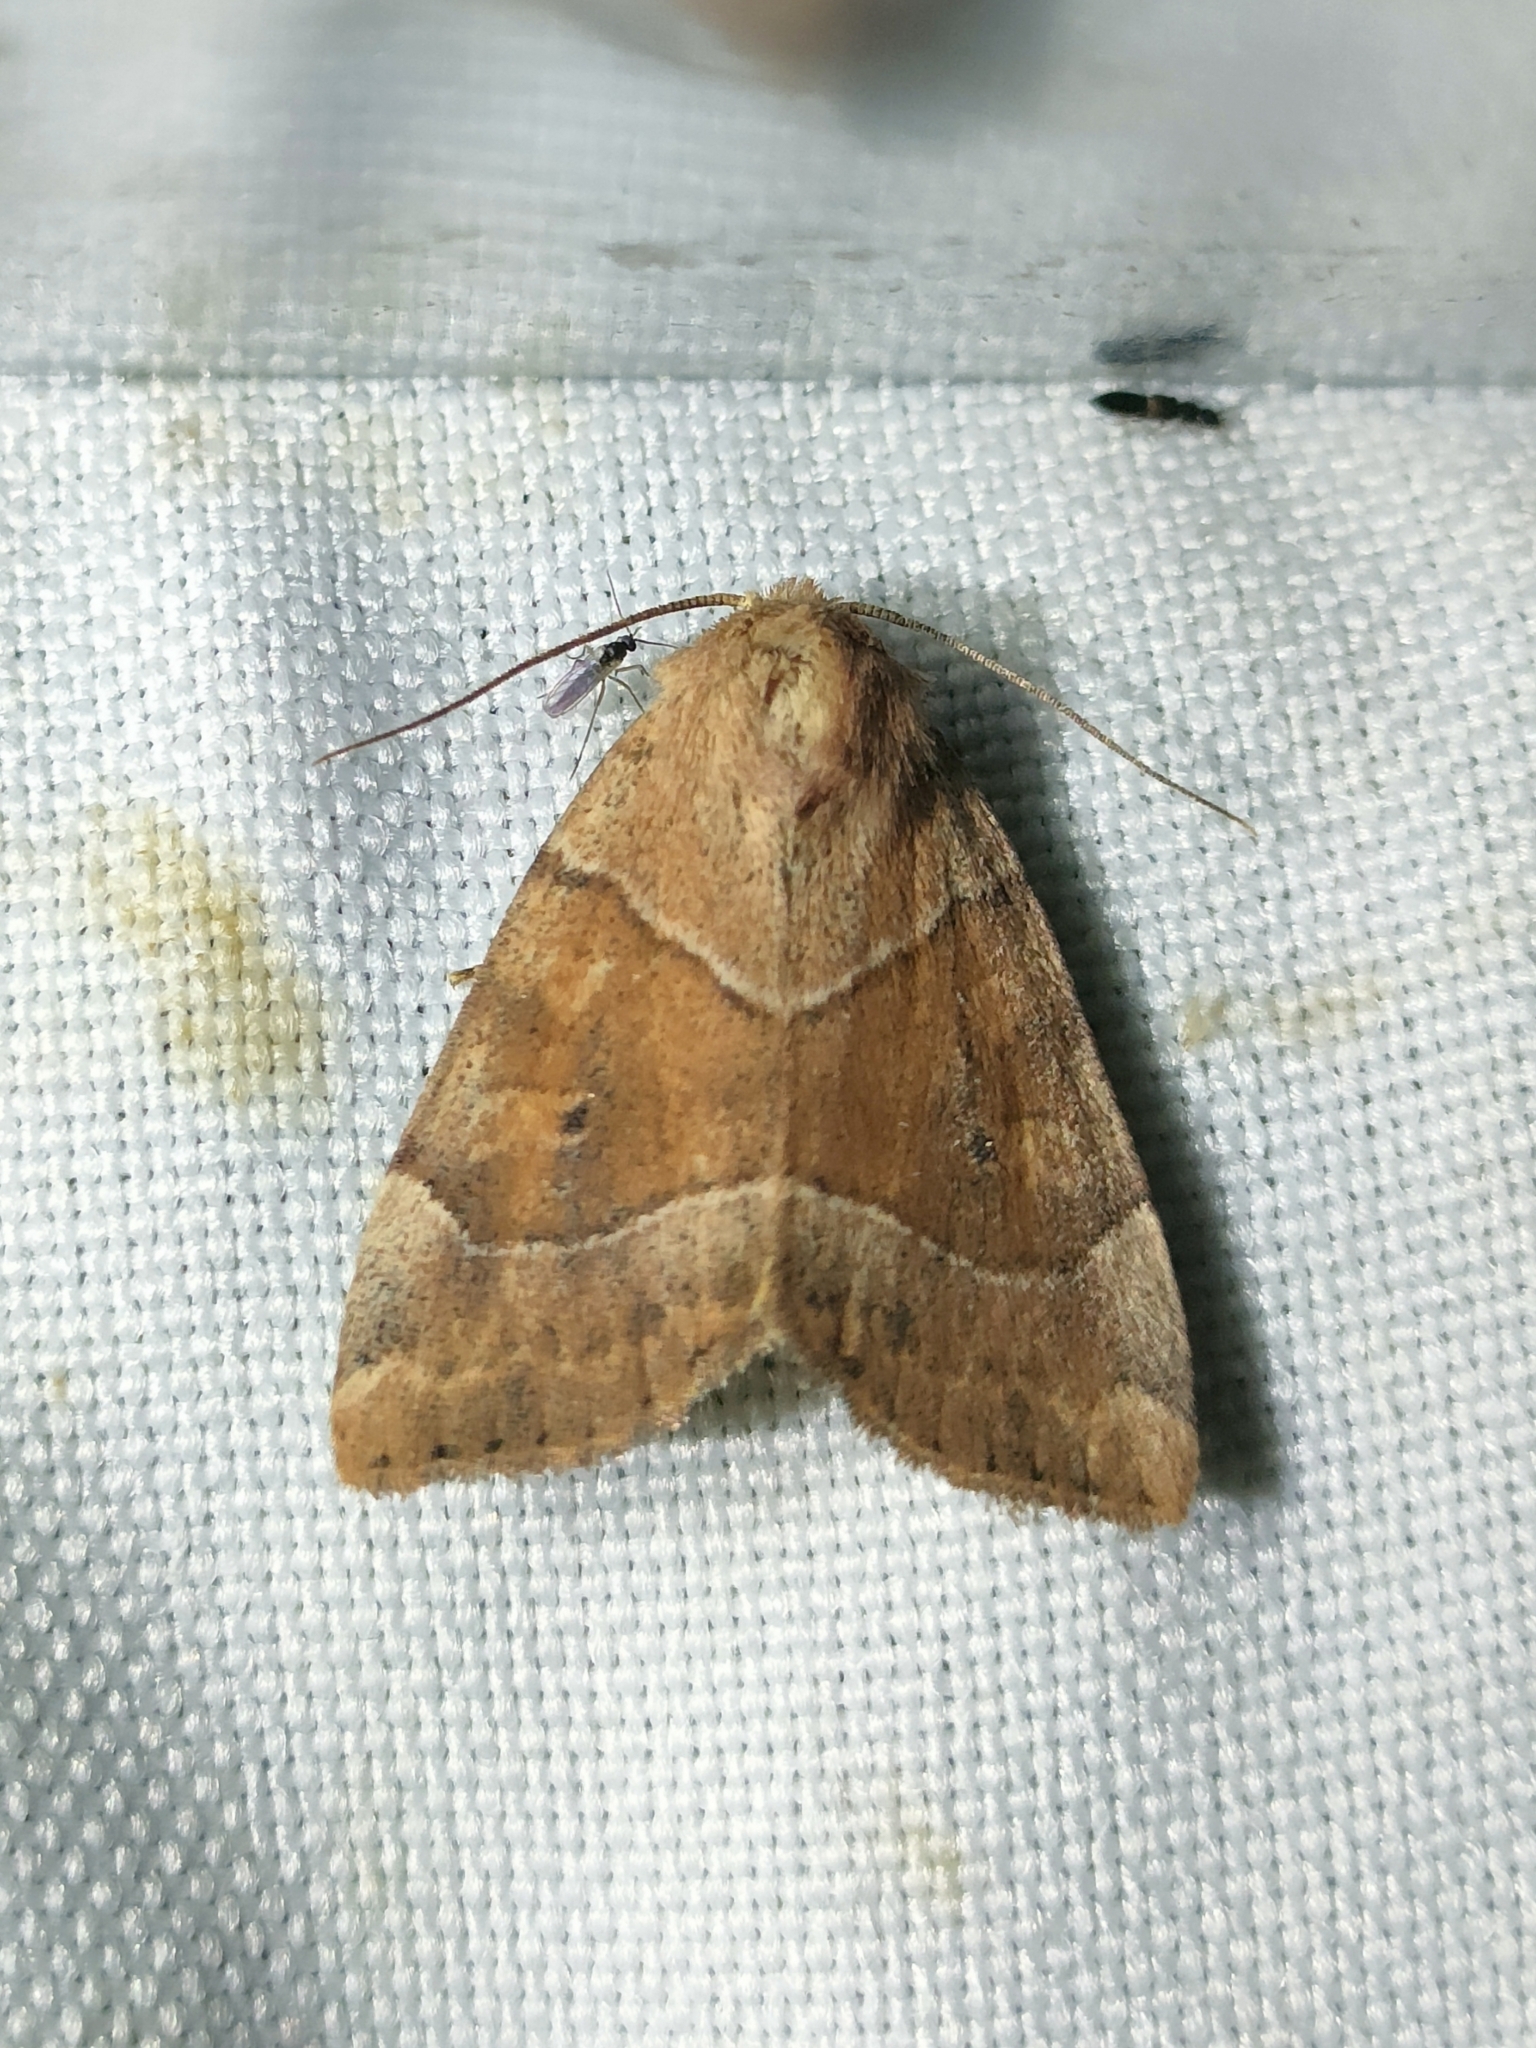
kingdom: Animalia
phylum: Arthropoda
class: Insecta
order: Lepidoptera
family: Noctuidae
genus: Cosmia
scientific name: Cosmia trapezina
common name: Dun-bar
